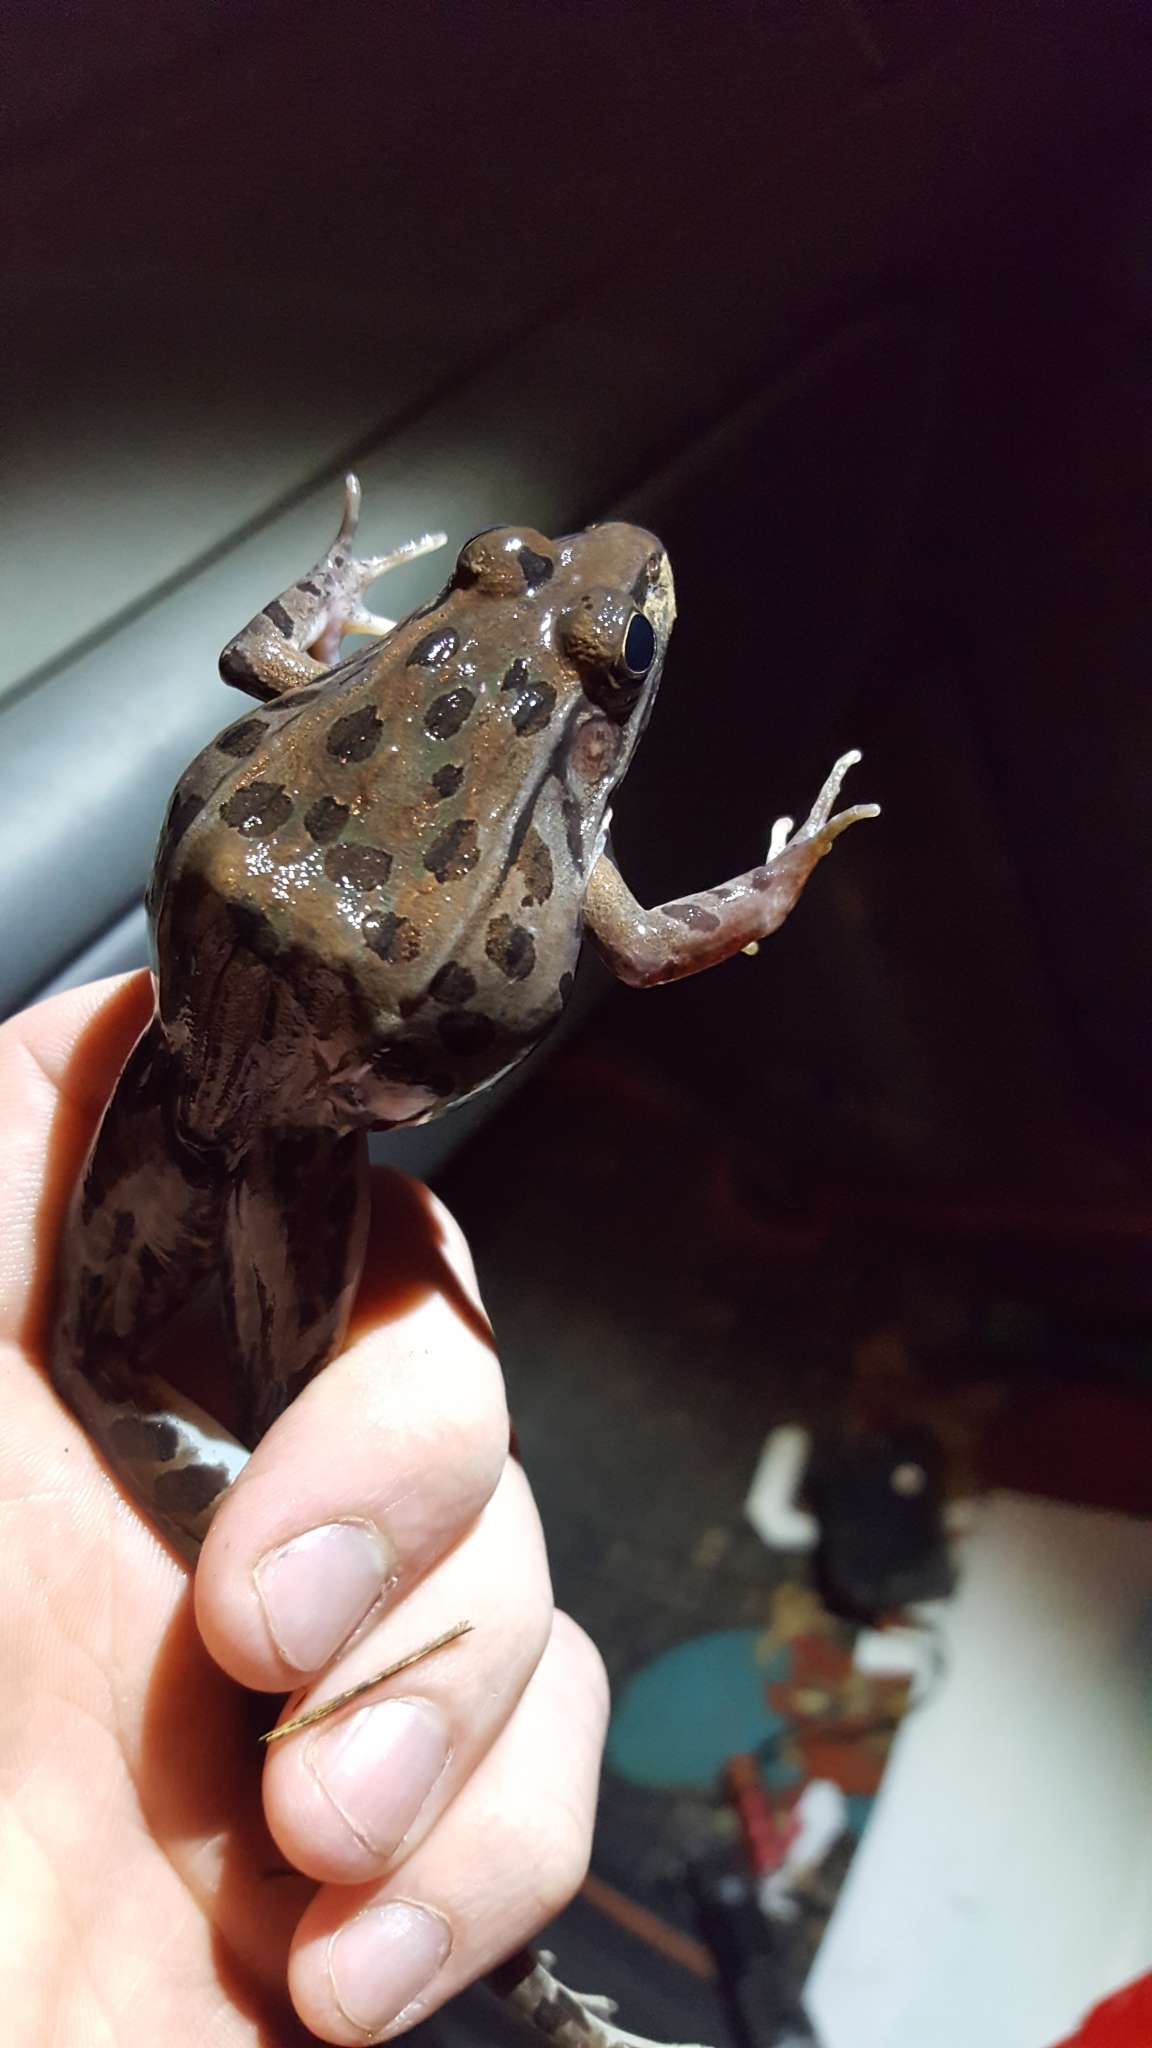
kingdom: Animalia
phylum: Chordata
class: Amphibia
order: Anura
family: Ranidae
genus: Lithobates
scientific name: Lithobates sphenocephalus
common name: Southern leopard frog
